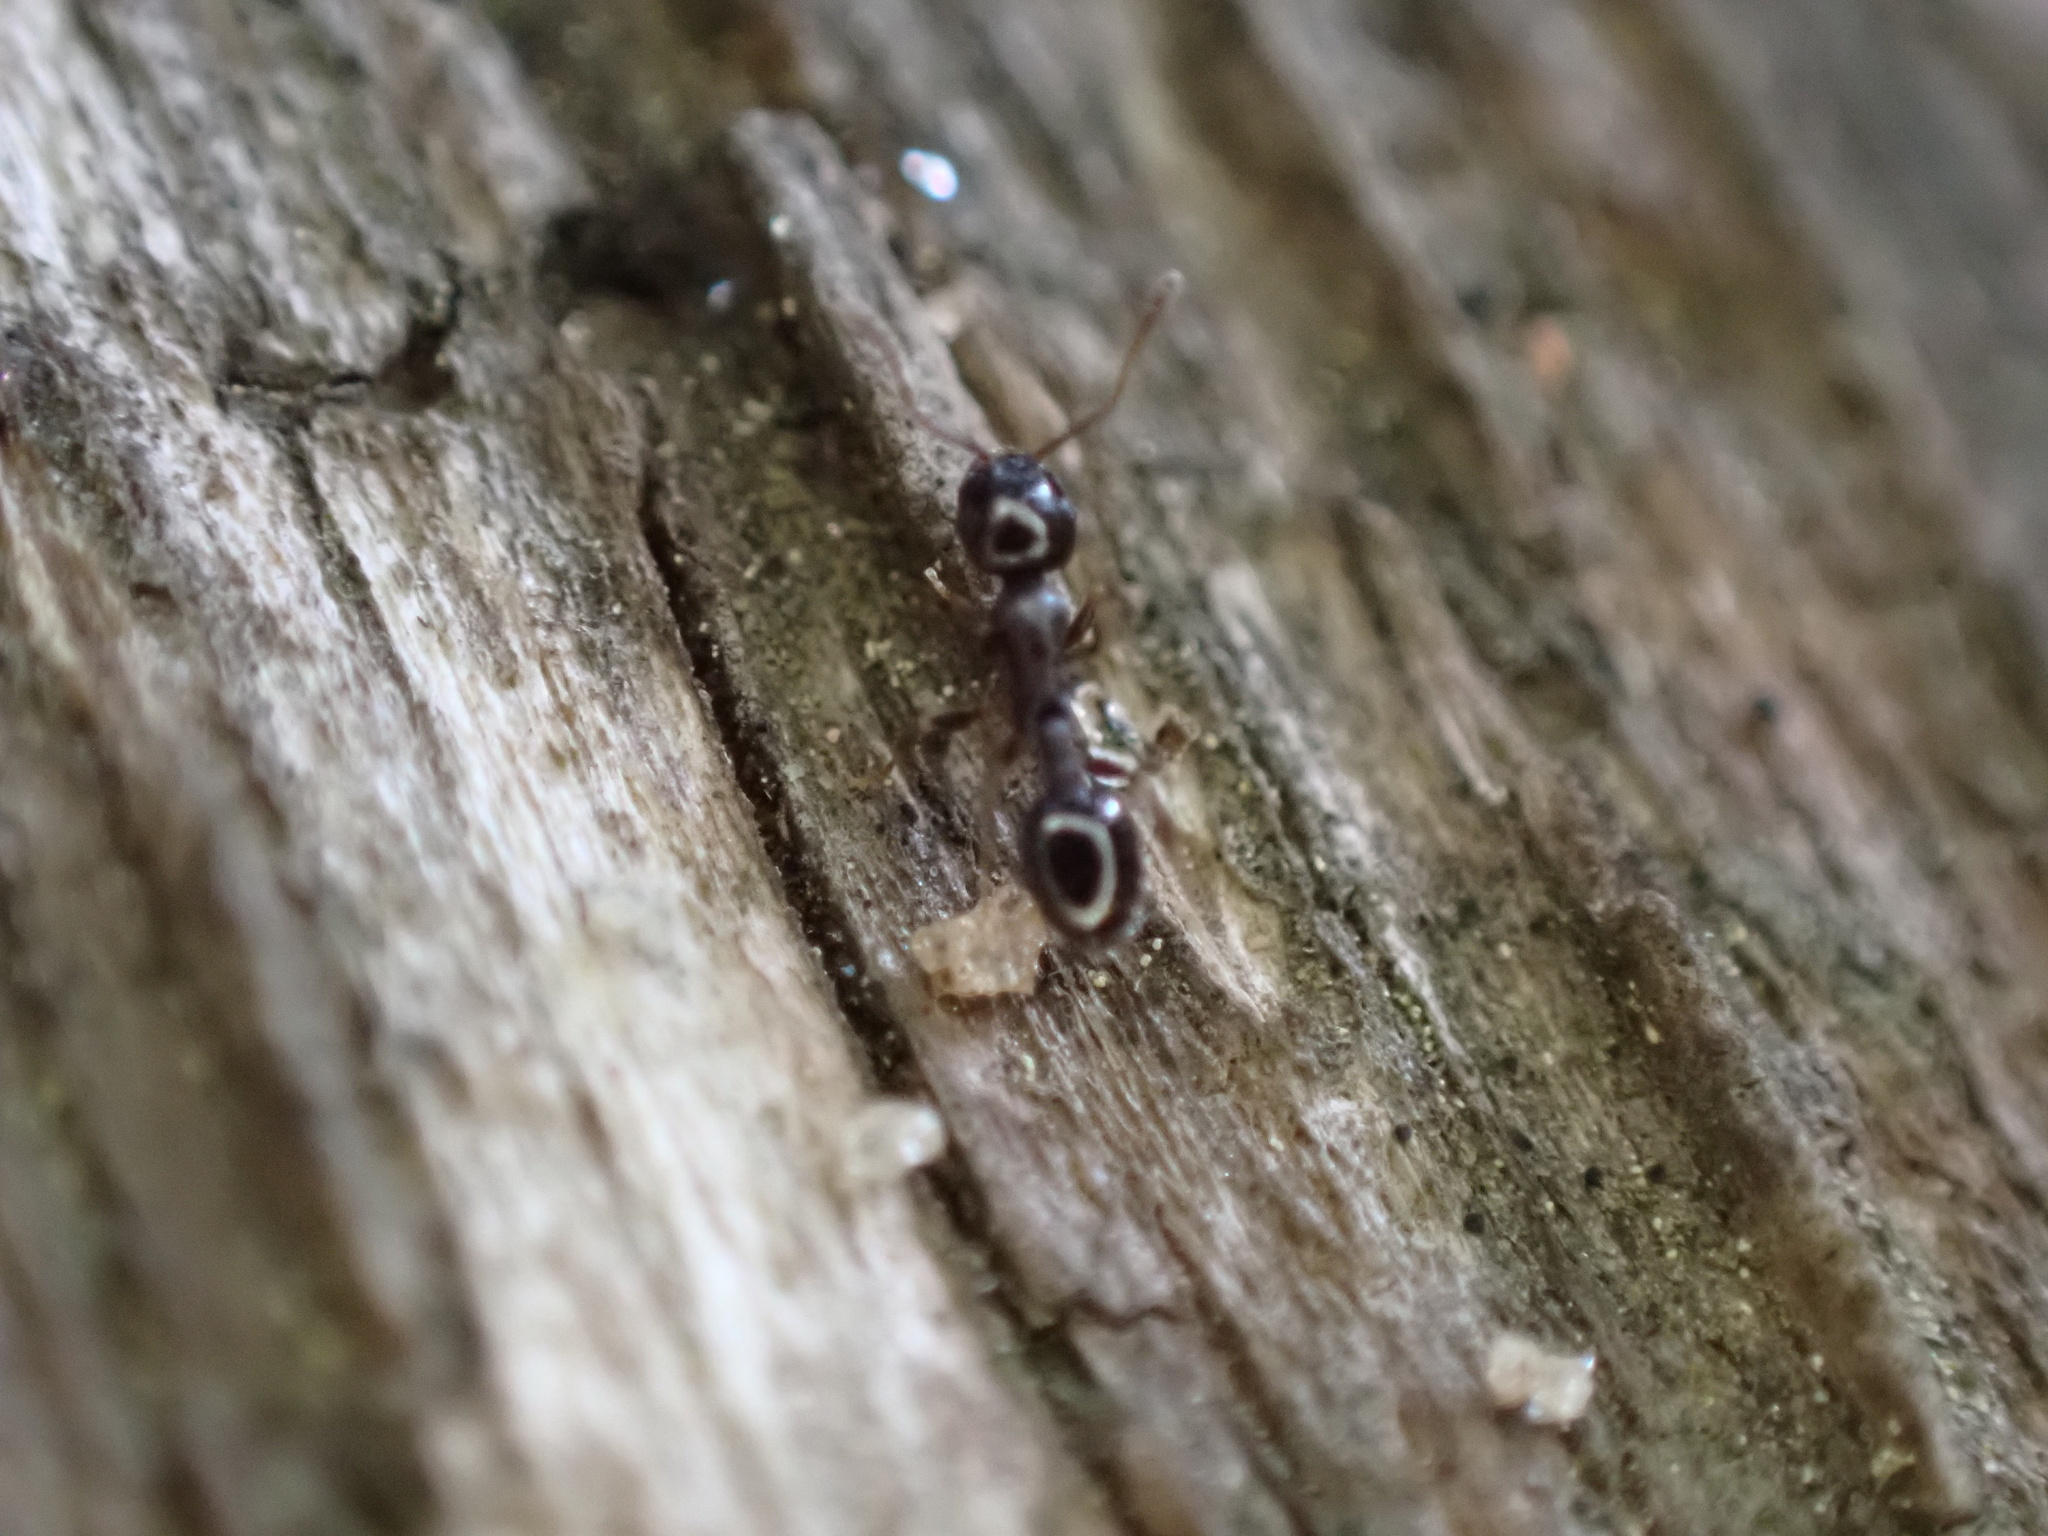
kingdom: Animalia
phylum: Arthropoda
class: Insecta
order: Hymenoptera
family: Formicidae
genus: Temnothorax
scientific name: Temnothorax longispinosus
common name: Long-spined acorn ant
